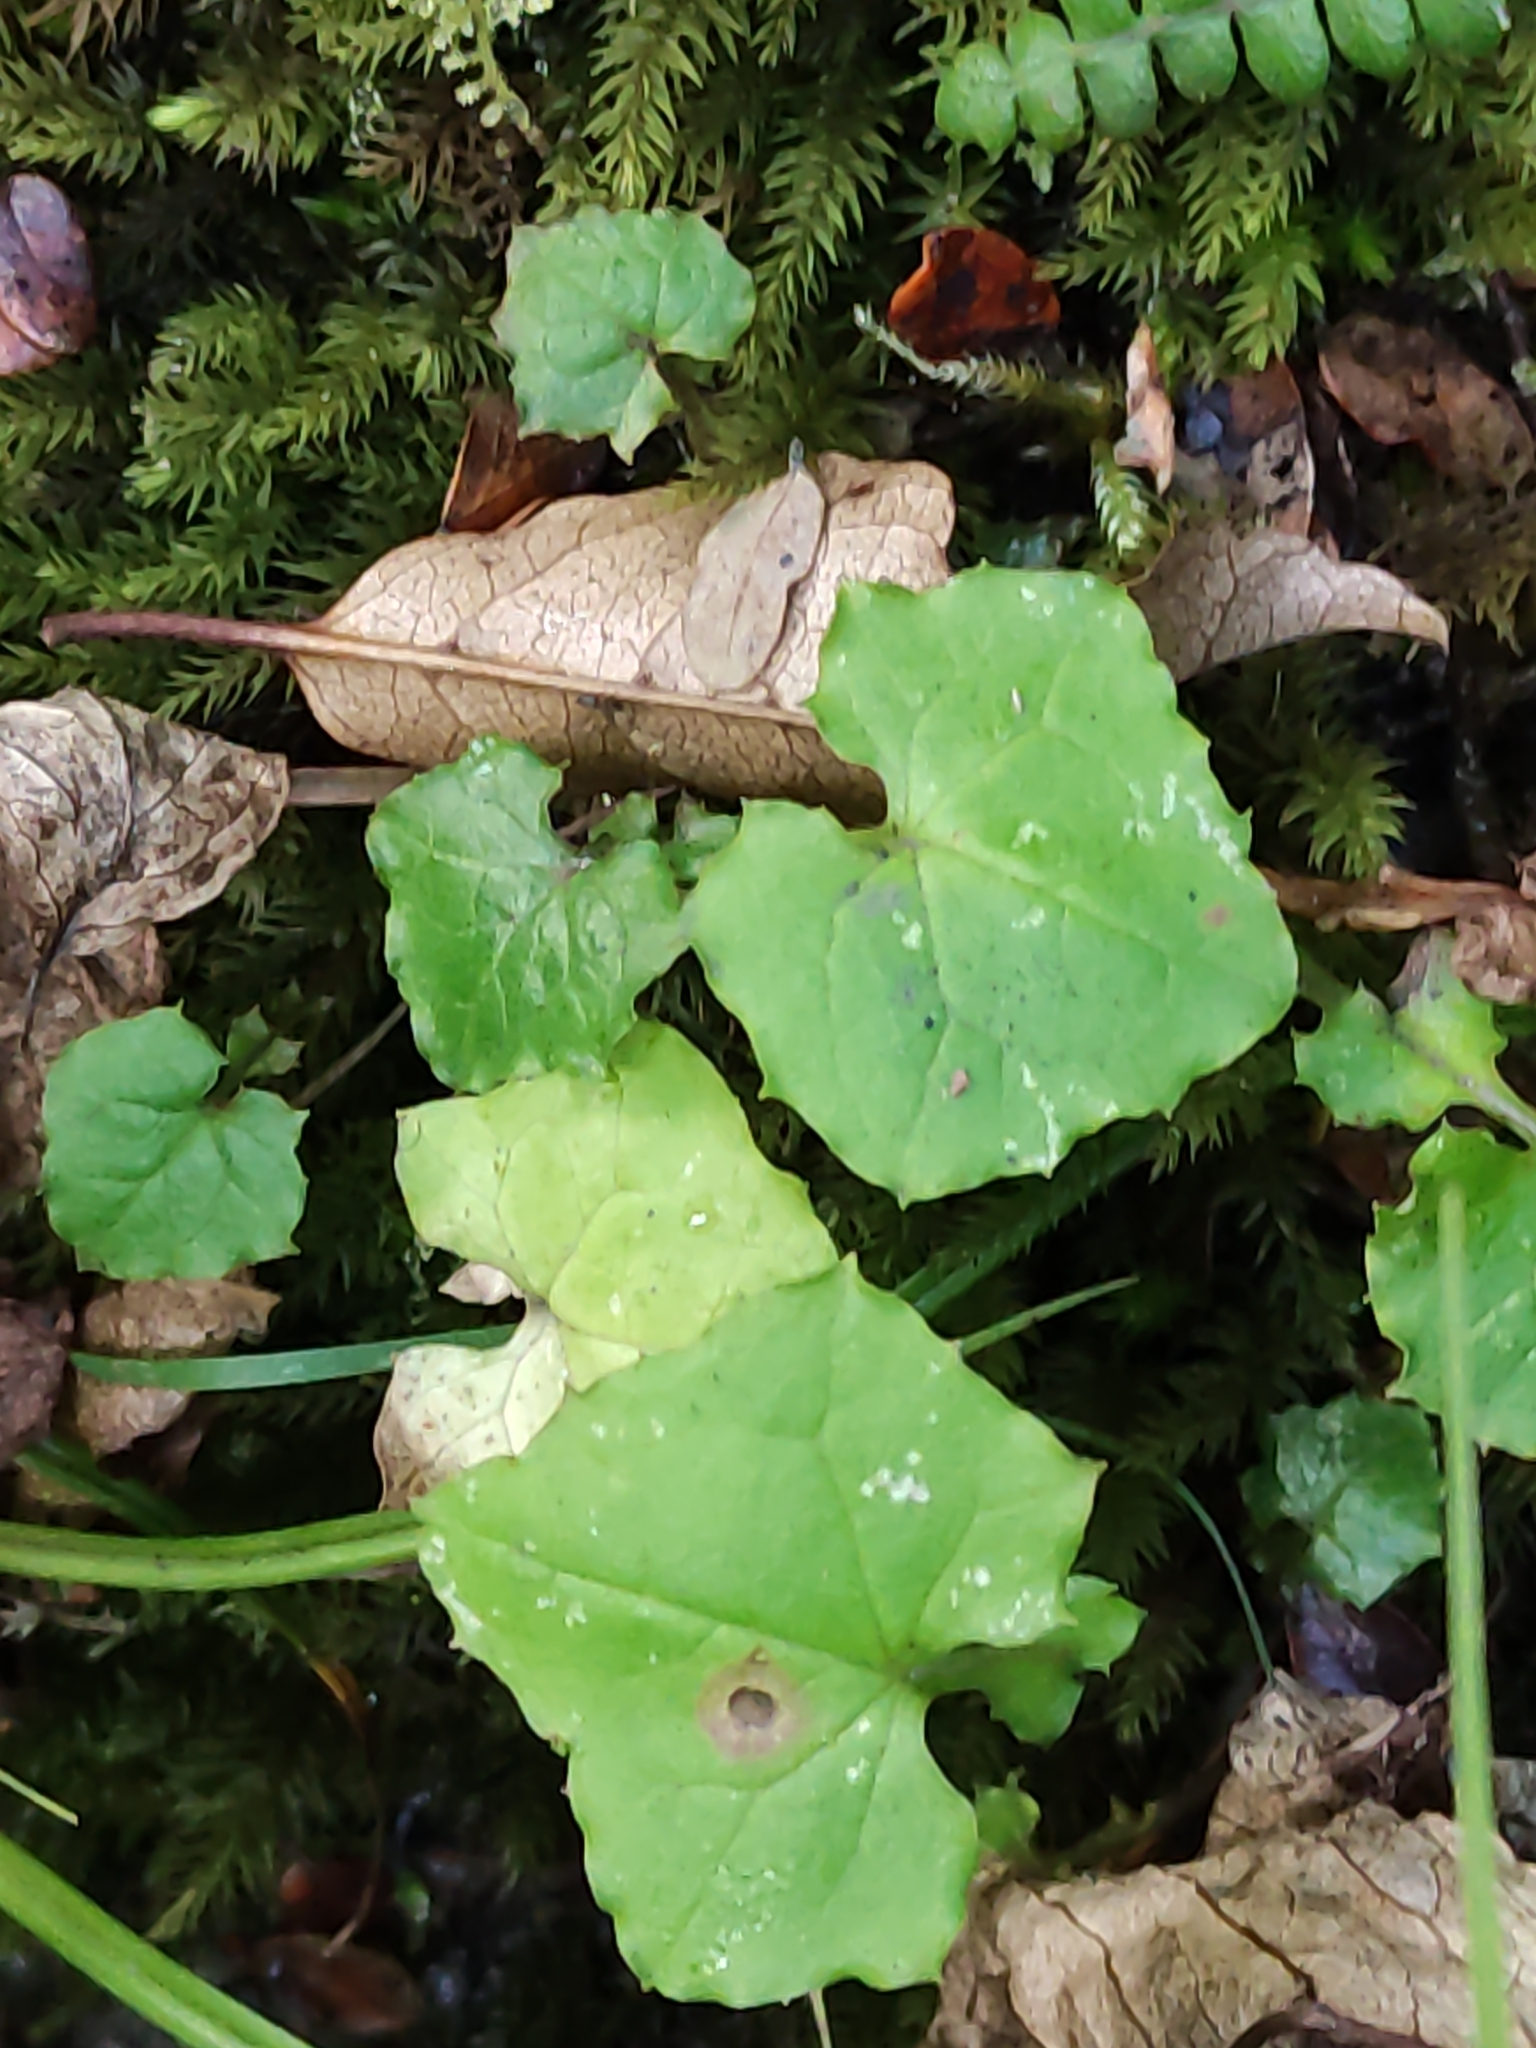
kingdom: Plantae
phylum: Tracheophyta
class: Magnoliopsida
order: Asterales
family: Asteraceae
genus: Mycelis
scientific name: Mycelis muralis
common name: Wall lettuce
